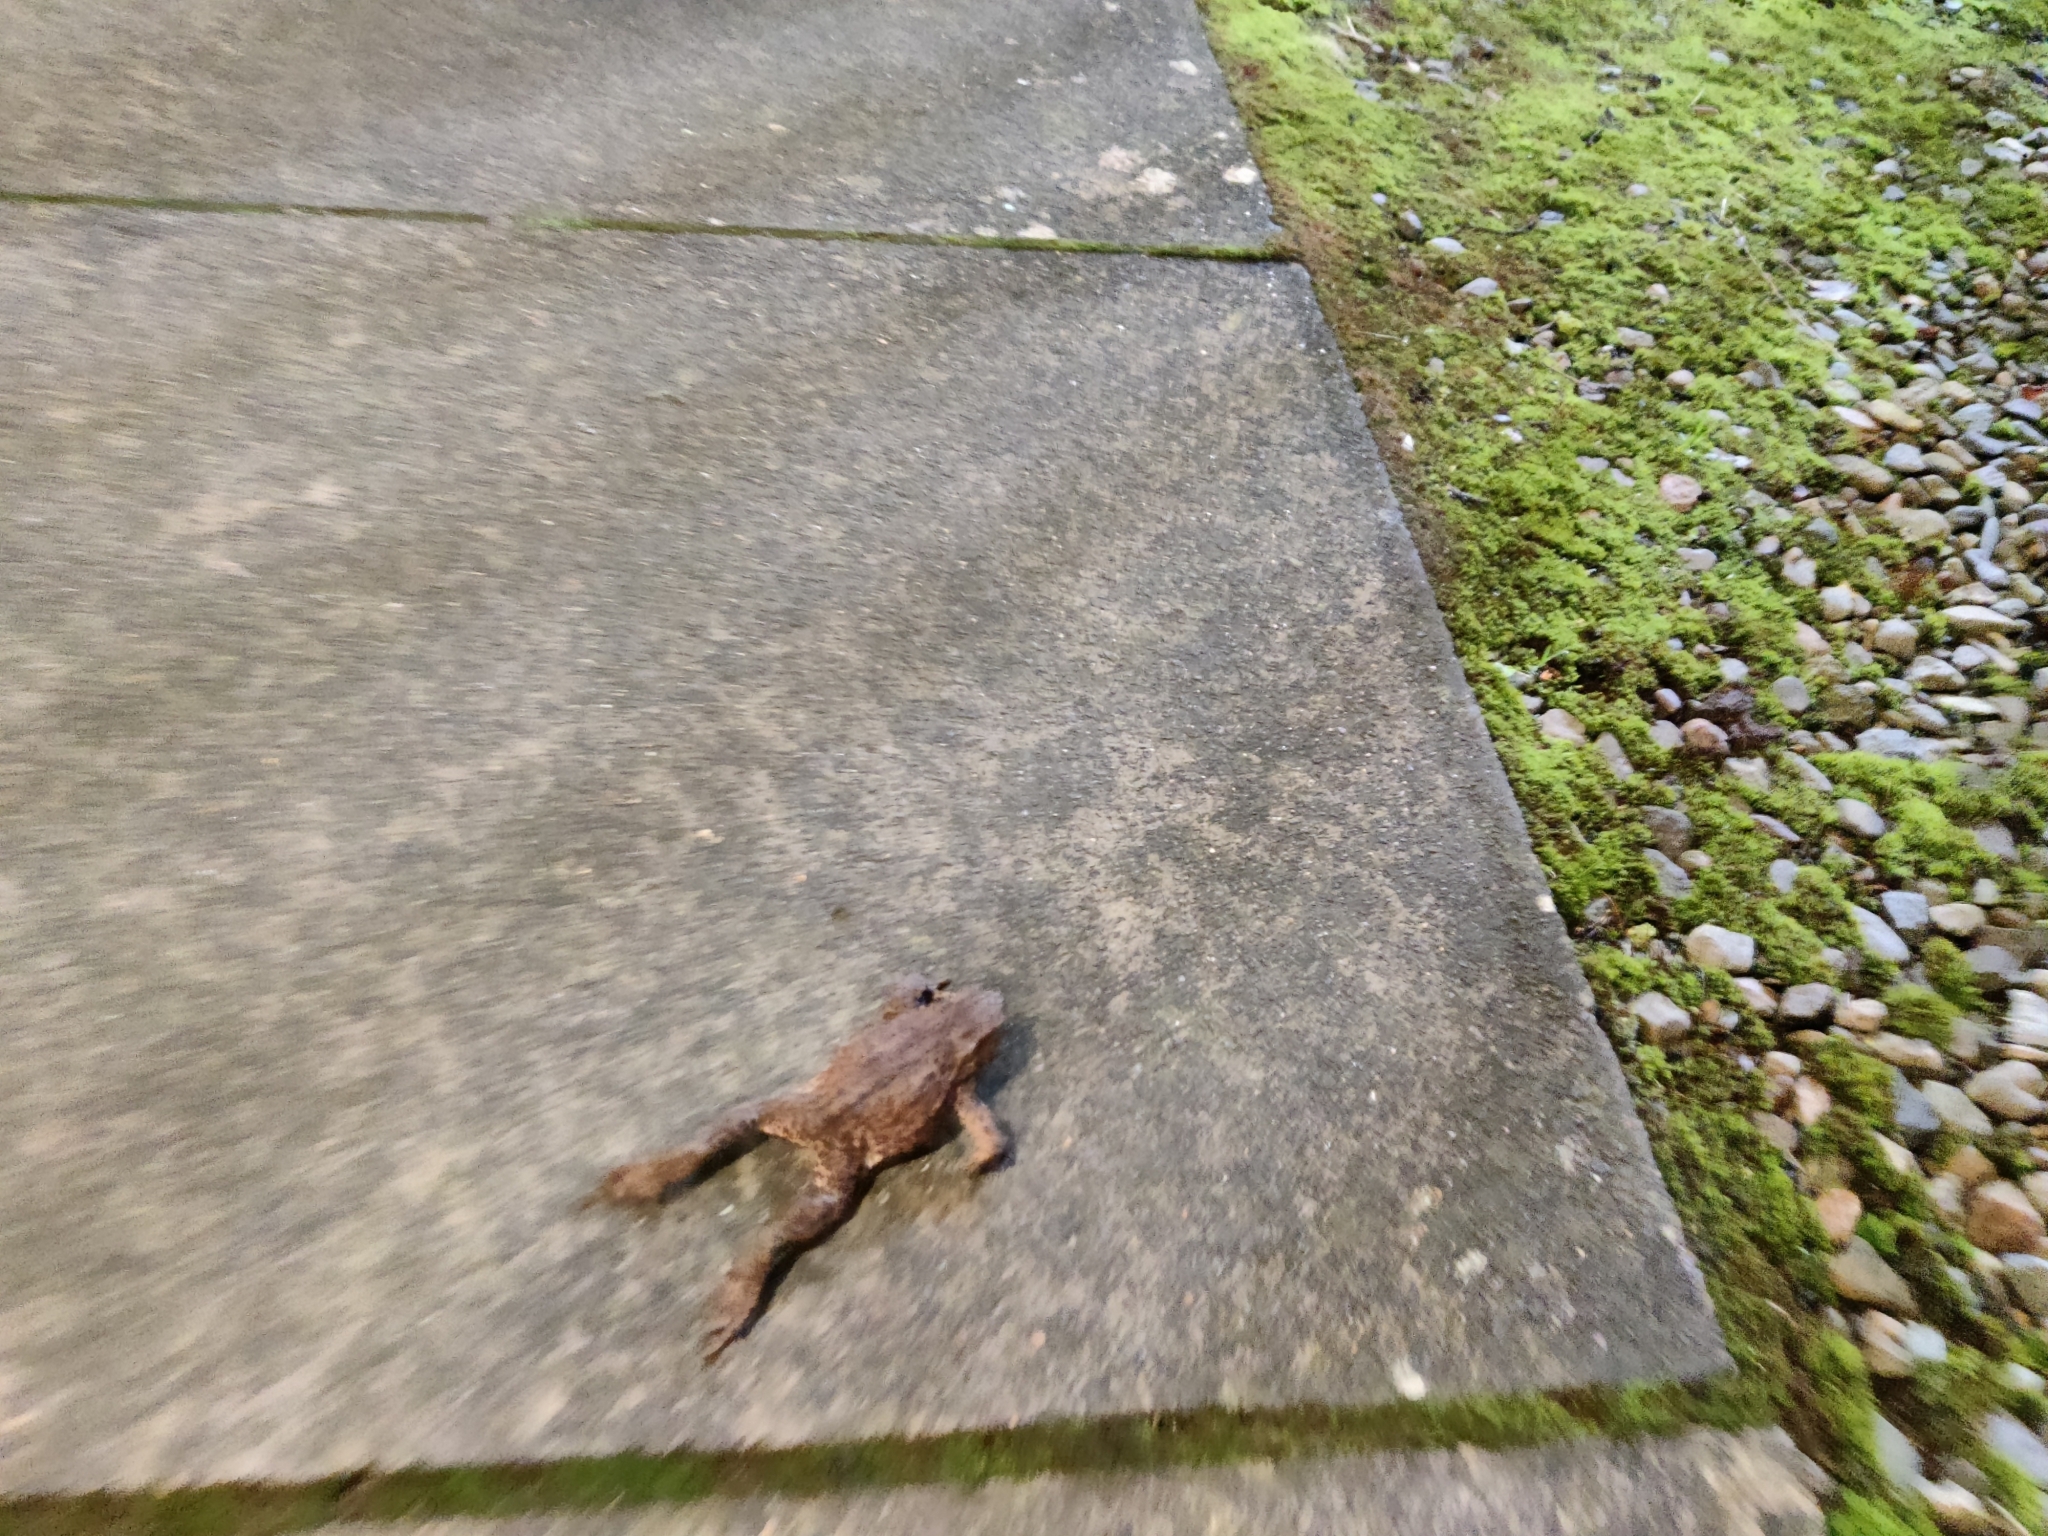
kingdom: Animalia
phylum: Chordata
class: Amphibia
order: Anura
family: Bufonidae
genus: Bufo
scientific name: Bufo bufo
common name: Common toad
